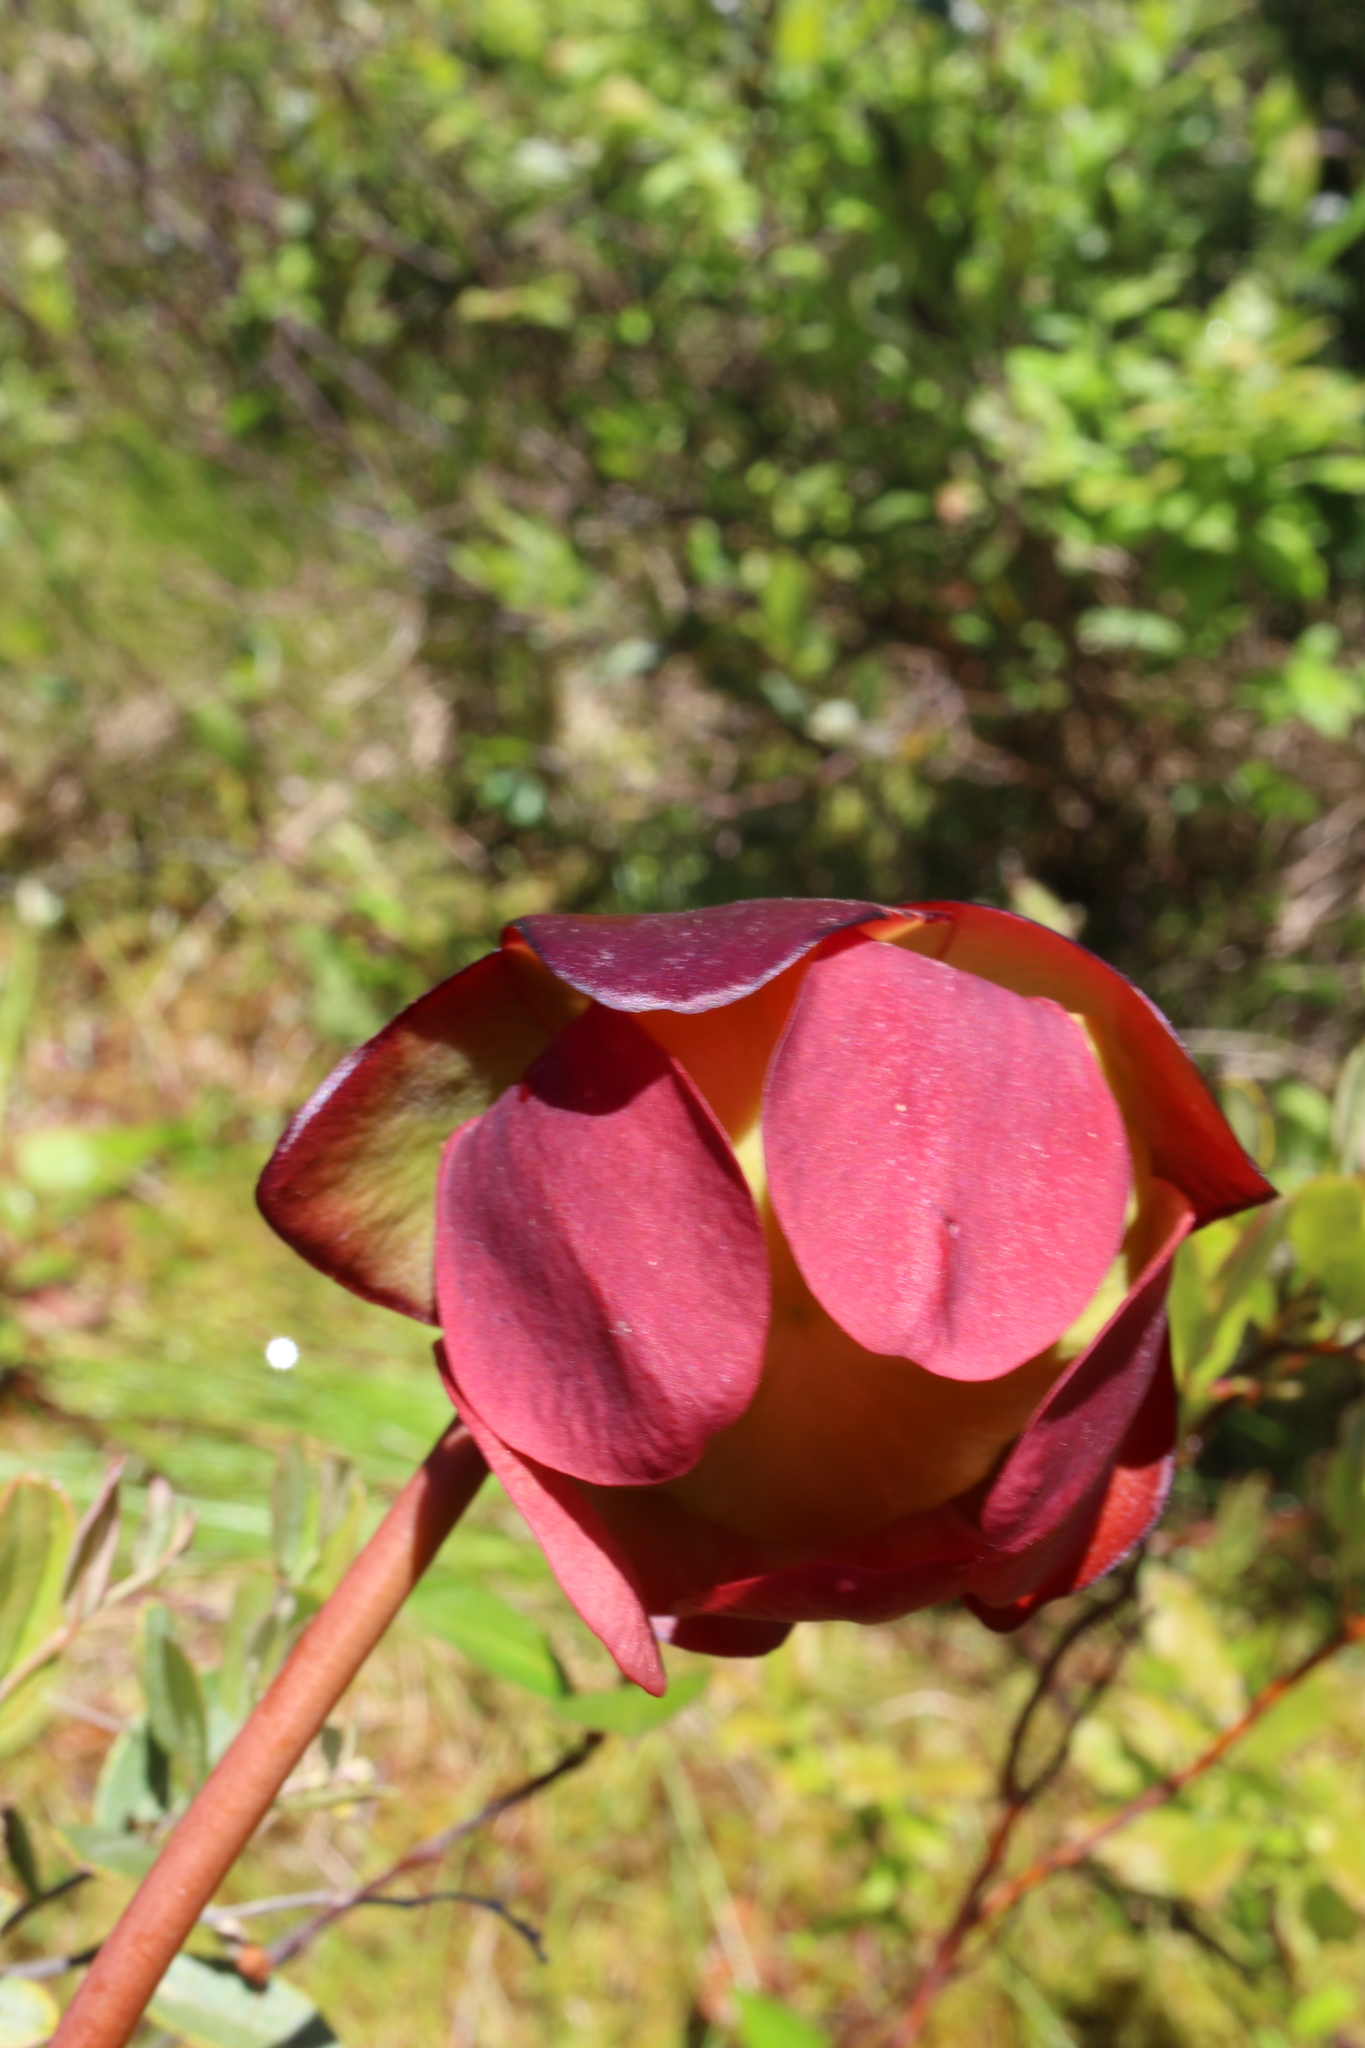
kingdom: Plantae
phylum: Tracheophyta
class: Magnoliopsida
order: Ericales
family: Sarraceniaceae
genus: Sarracenia
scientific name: Sarracenia purpurea
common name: Pitcherplant
